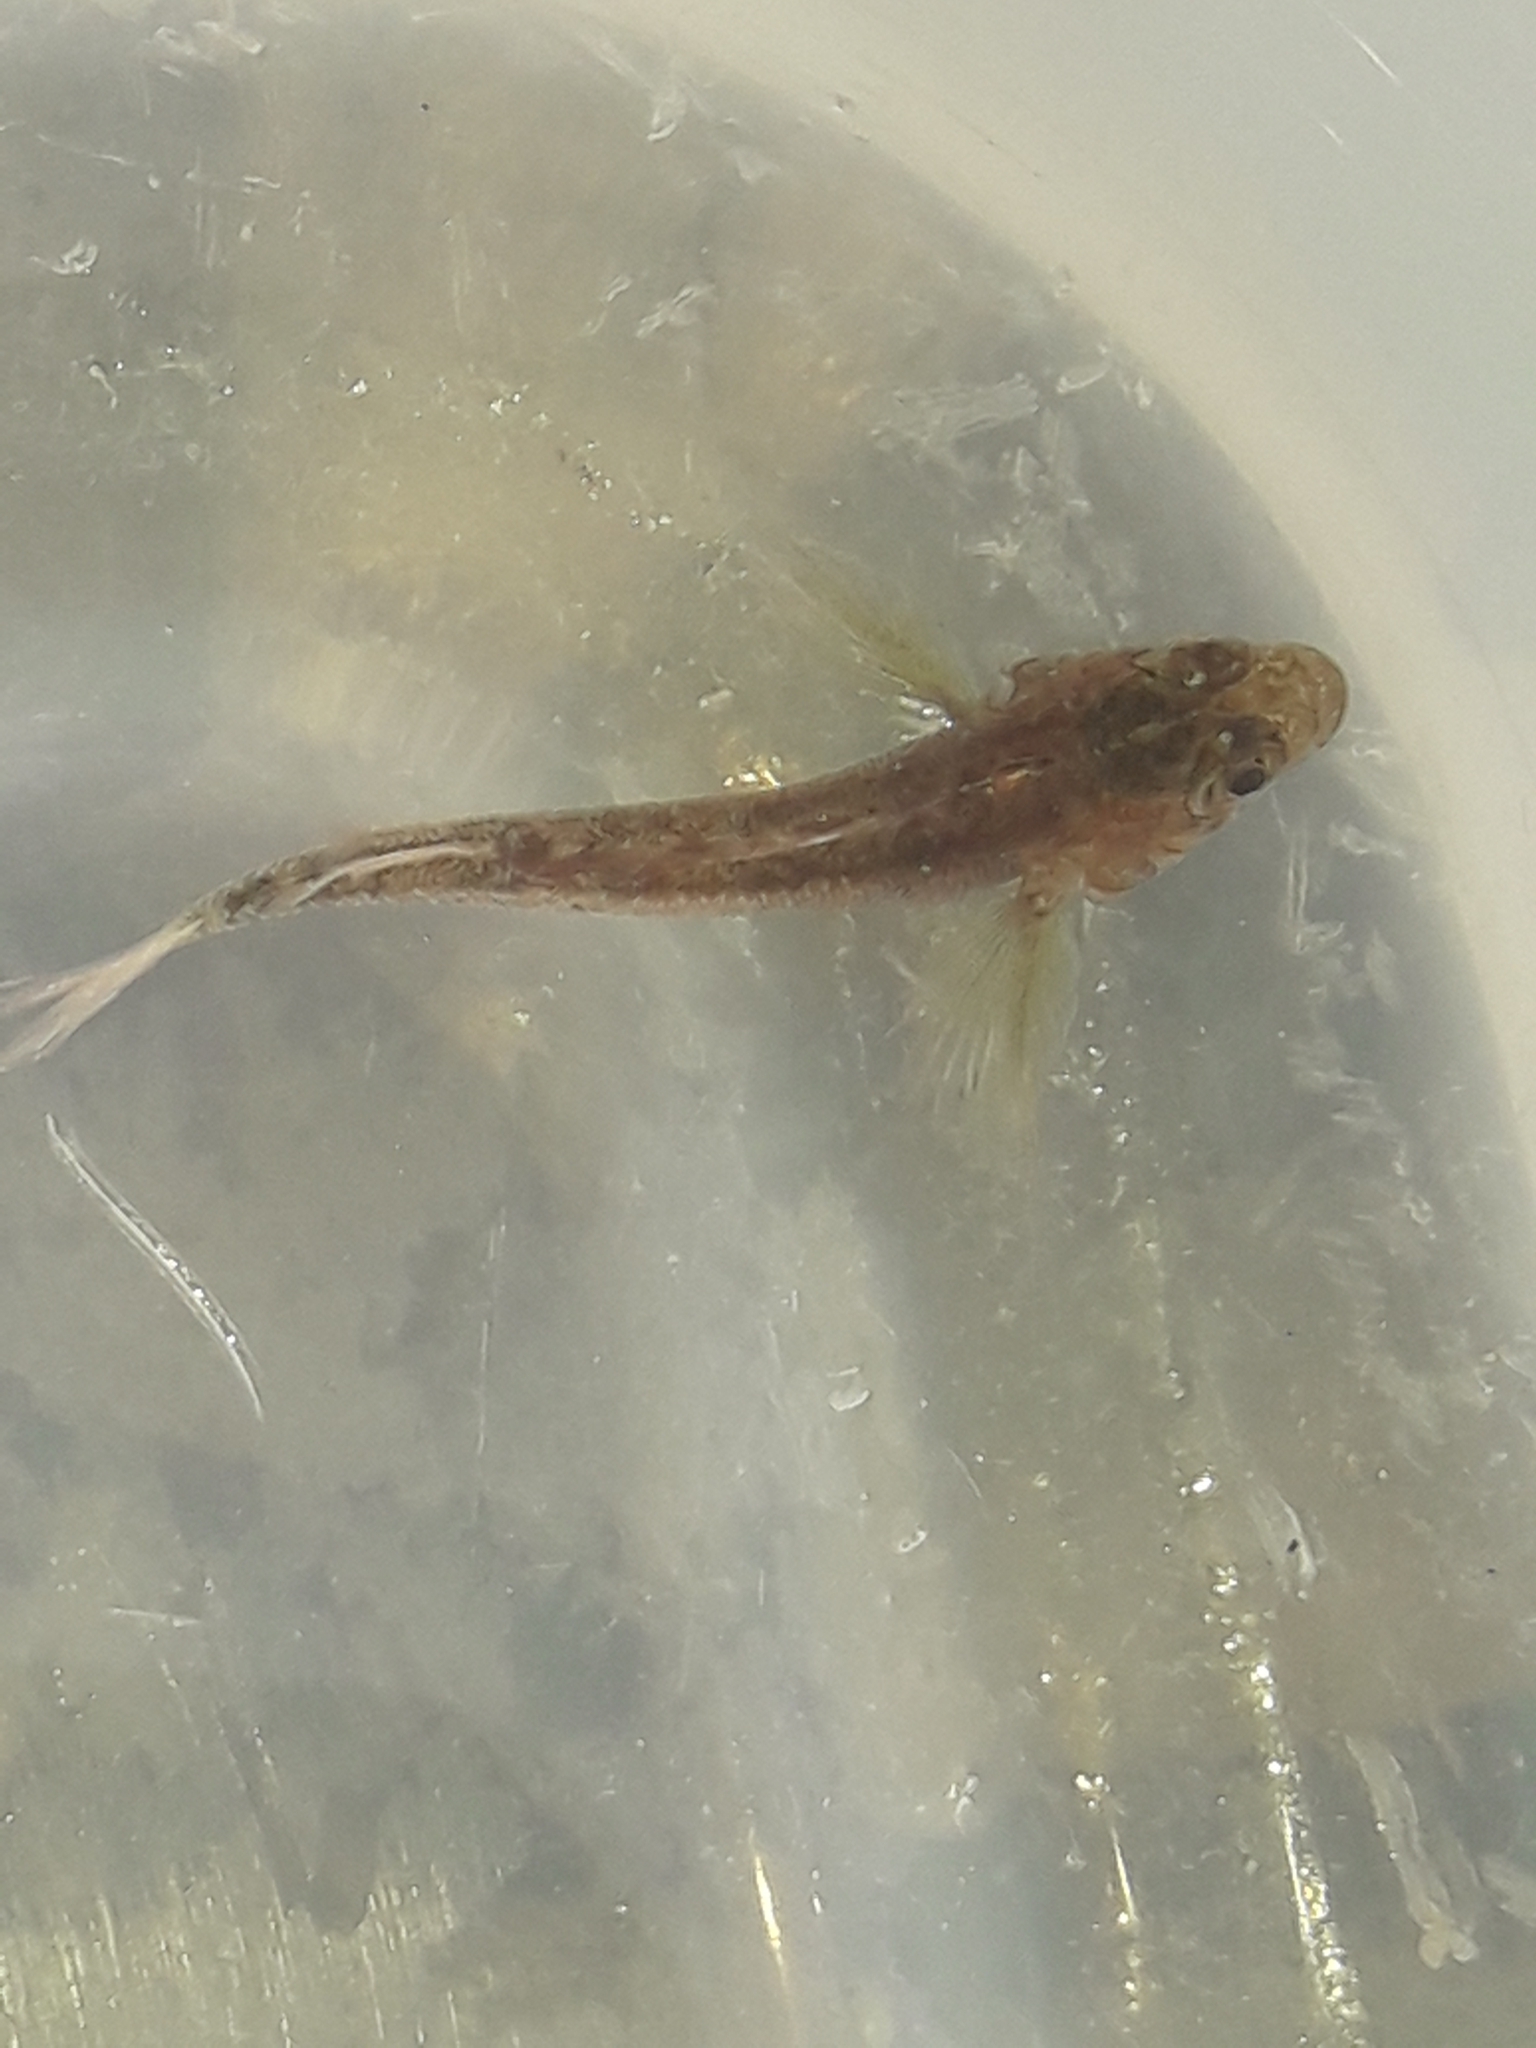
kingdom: Animalia
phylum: Chordata
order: Perciformes
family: Tripterygiidae
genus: Forsterygion
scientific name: Forsterygion lapillum
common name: Common triplefin
